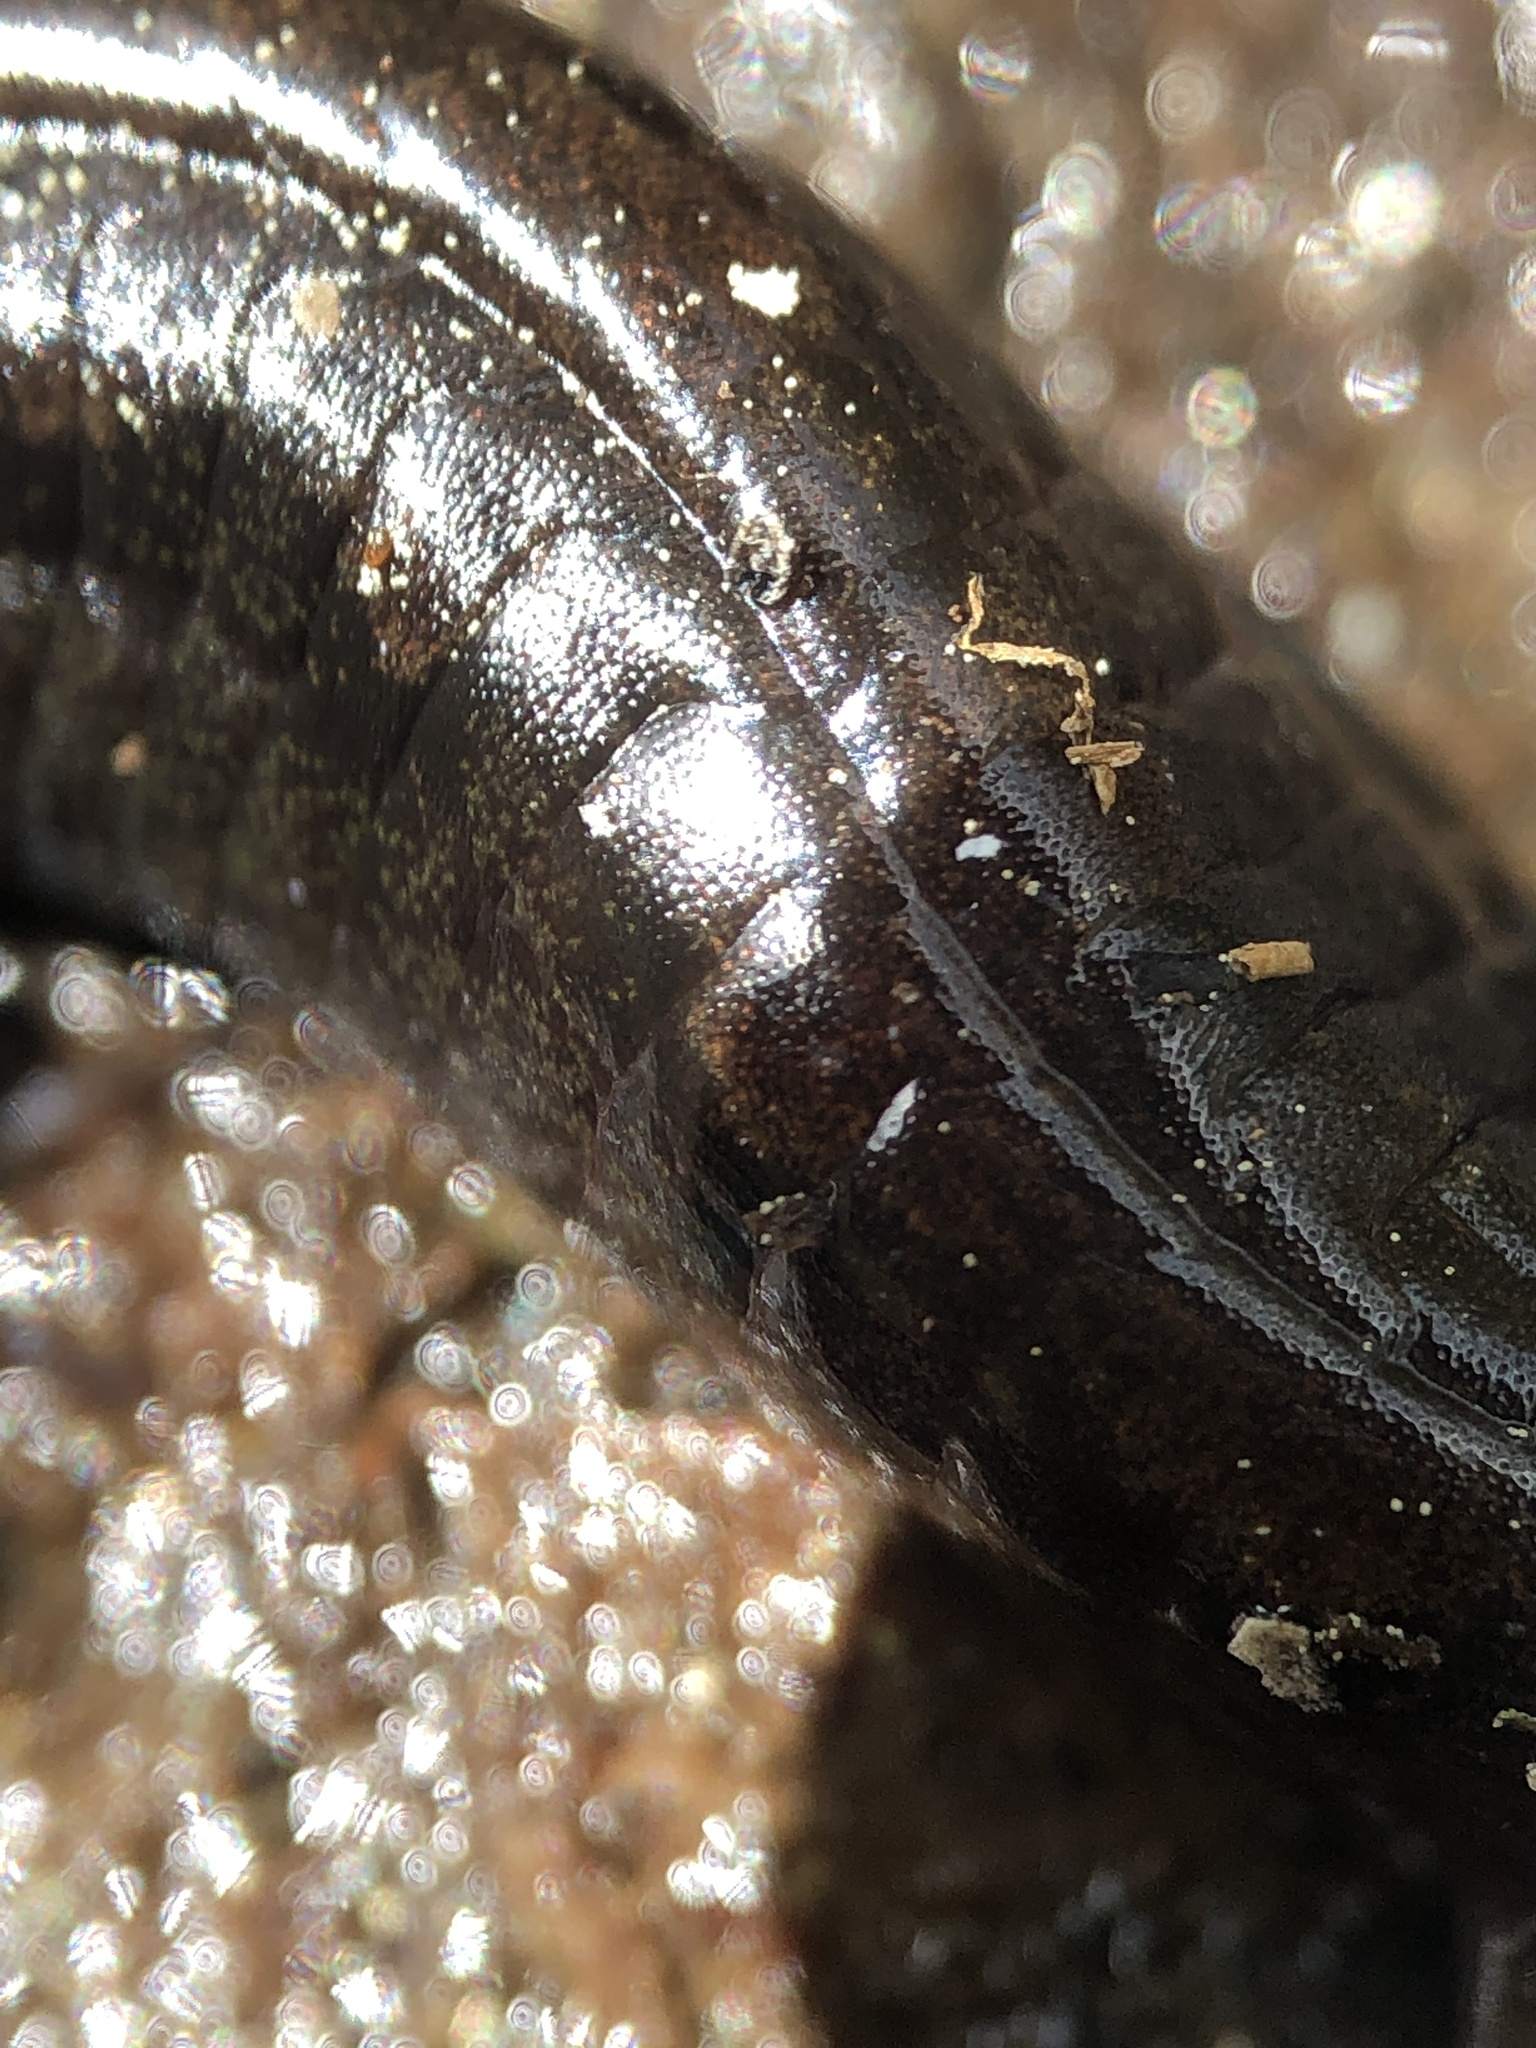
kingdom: Animalia
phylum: Chordata
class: Amphibia
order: Caudata
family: Plethodontidae
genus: Desmognathus
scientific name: Desmognathus ocoee
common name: Ocoee salamander
